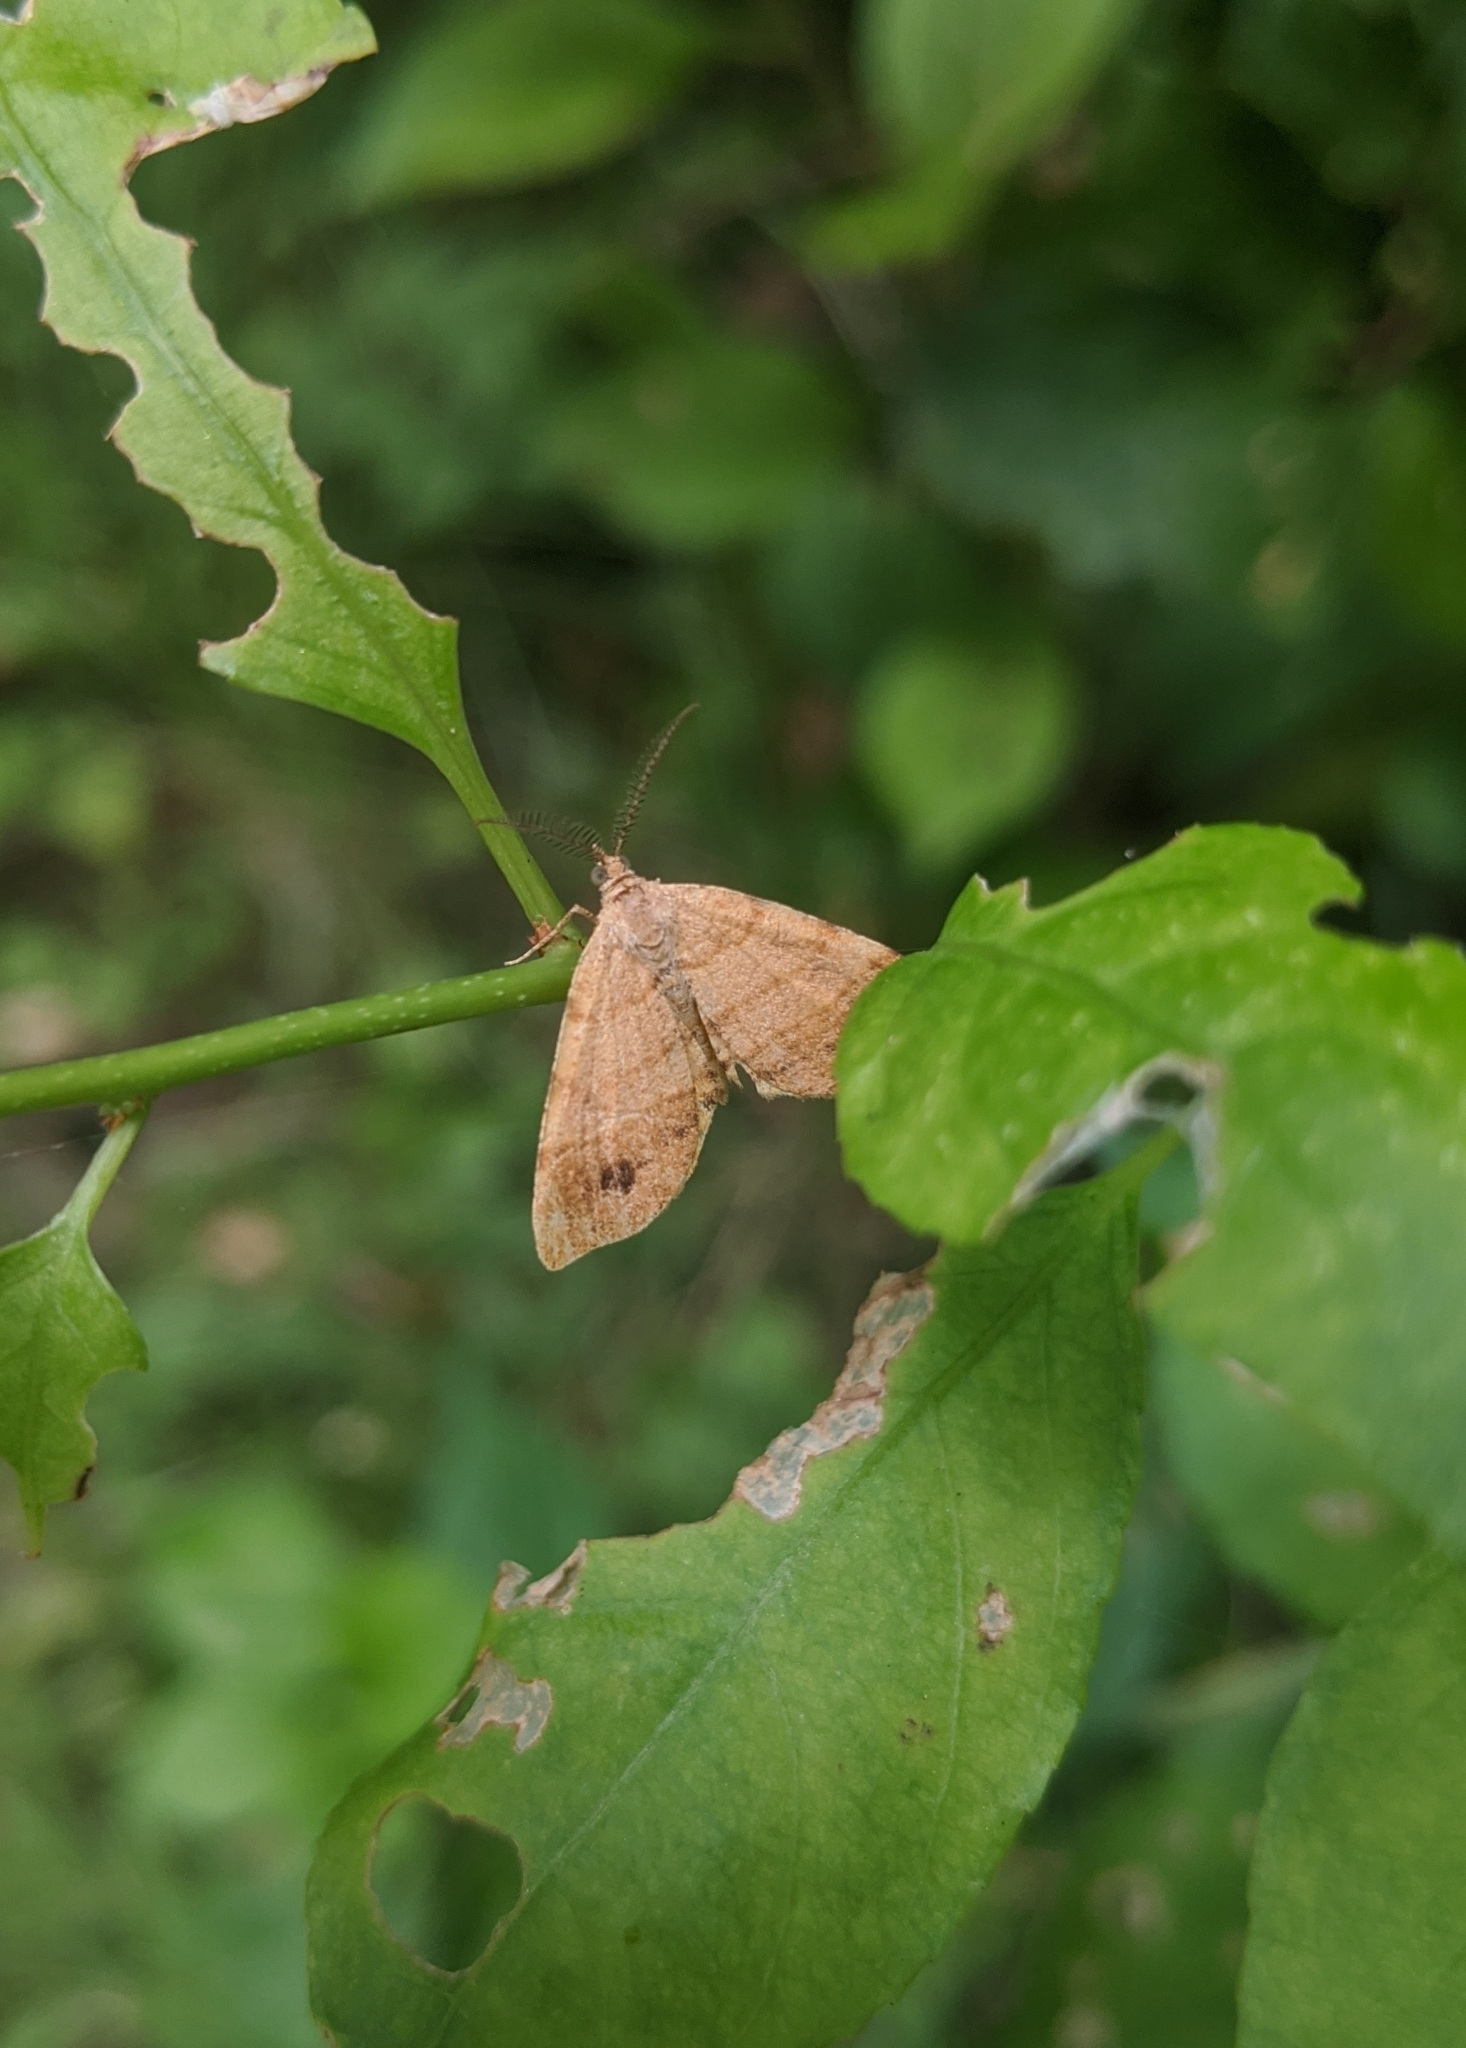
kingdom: Animalia
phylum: Arthropoda
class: Insecta
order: Lepidoptera
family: Geometridae
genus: Mellilla
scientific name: Mellilla xanthometata
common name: Orange wing moth
